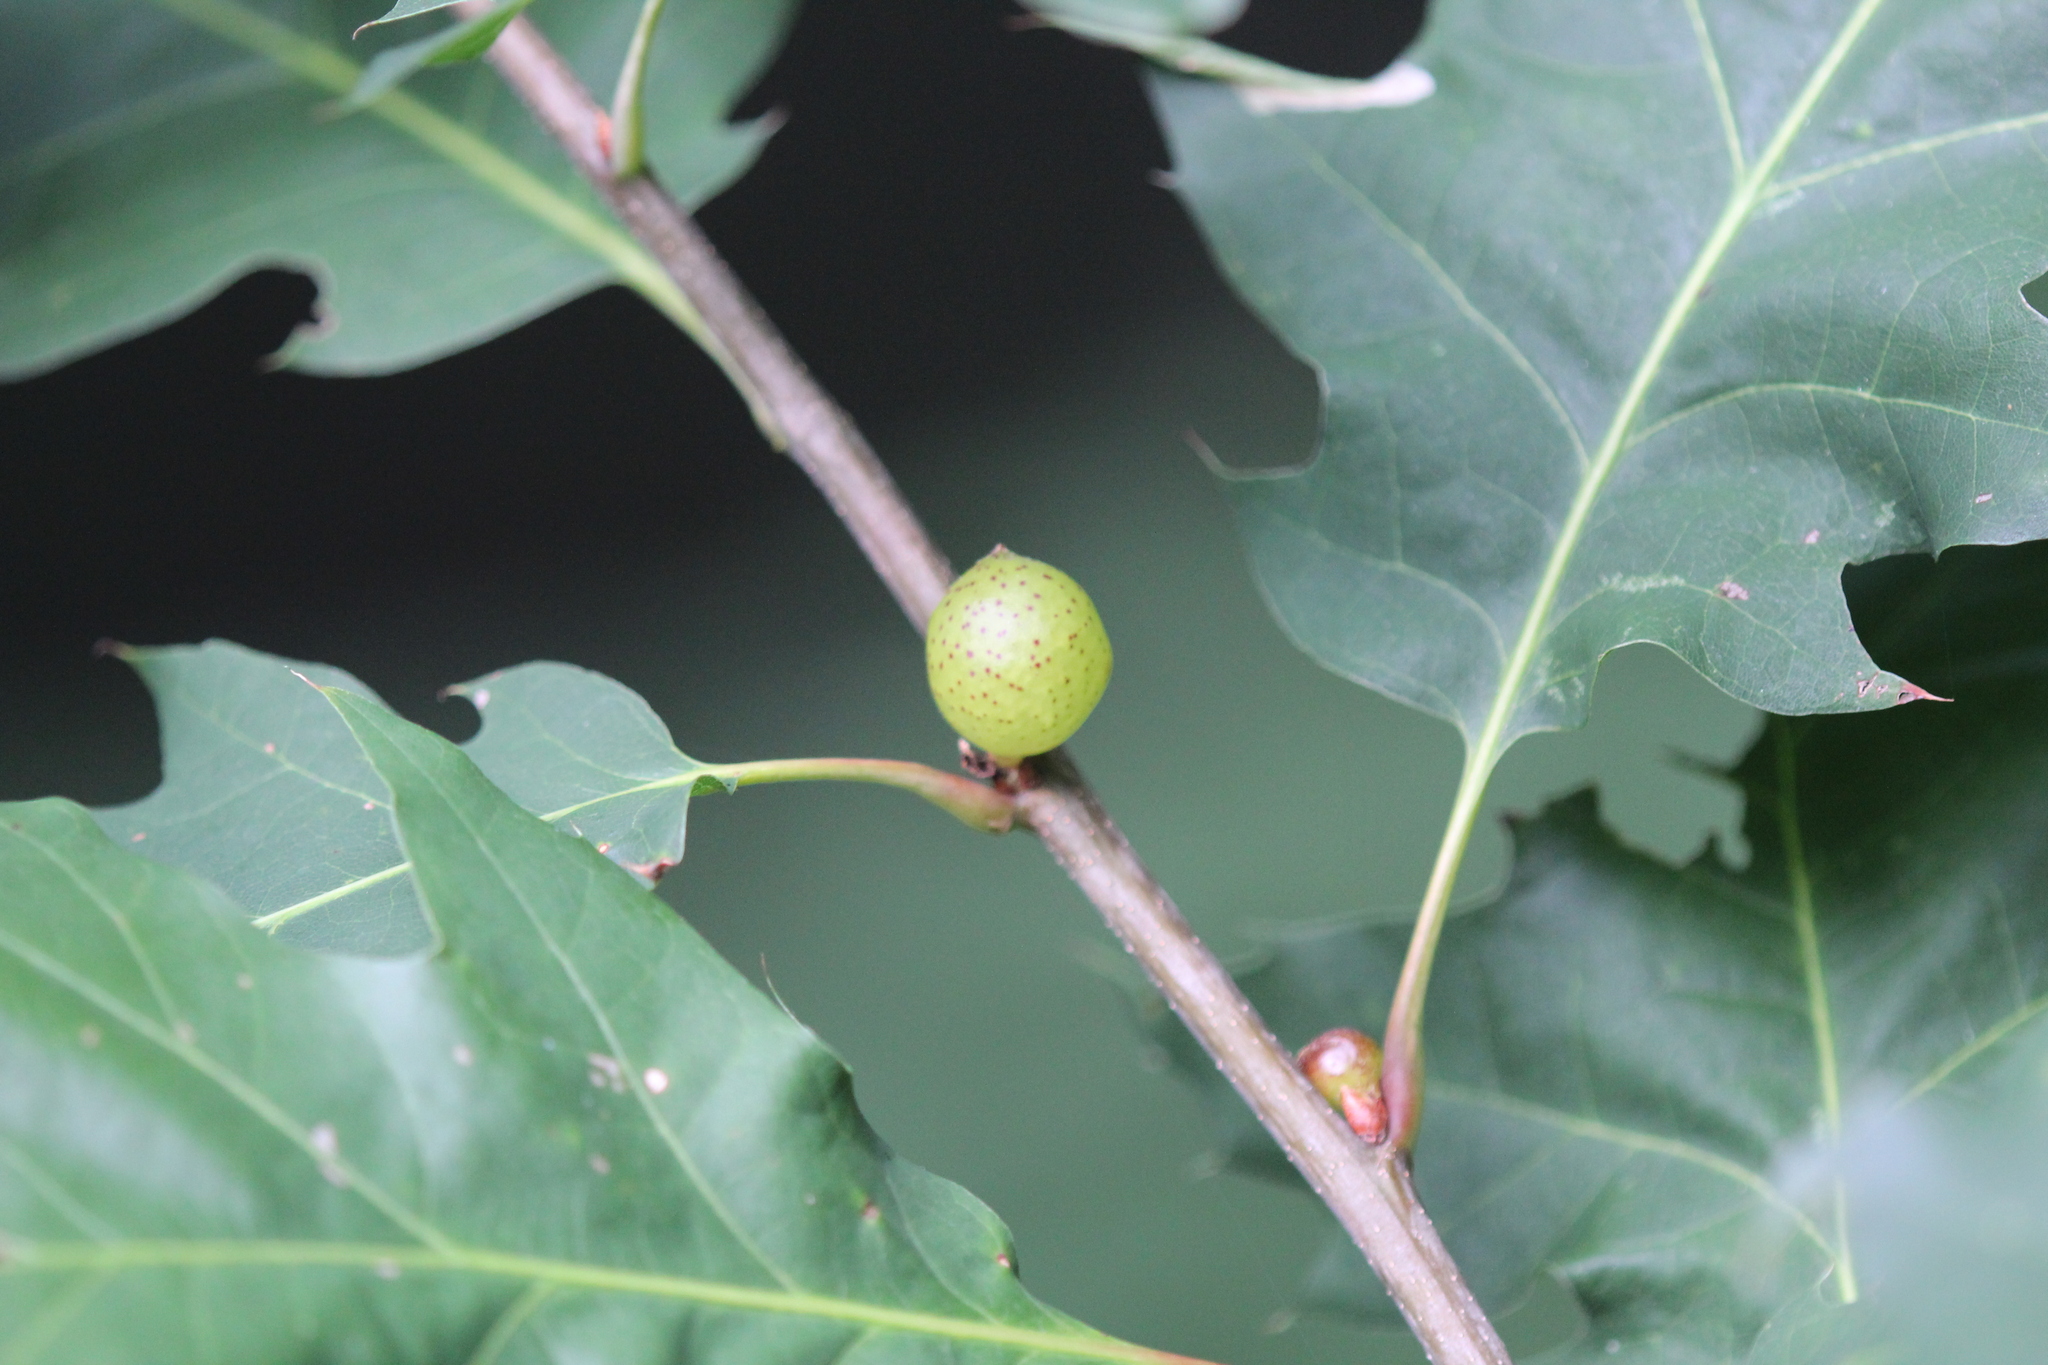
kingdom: Animalia
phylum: Arthropoda
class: Insecta
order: Hymenoptera
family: Cynipidae
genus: Amphibolips
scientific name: Amphibolips
